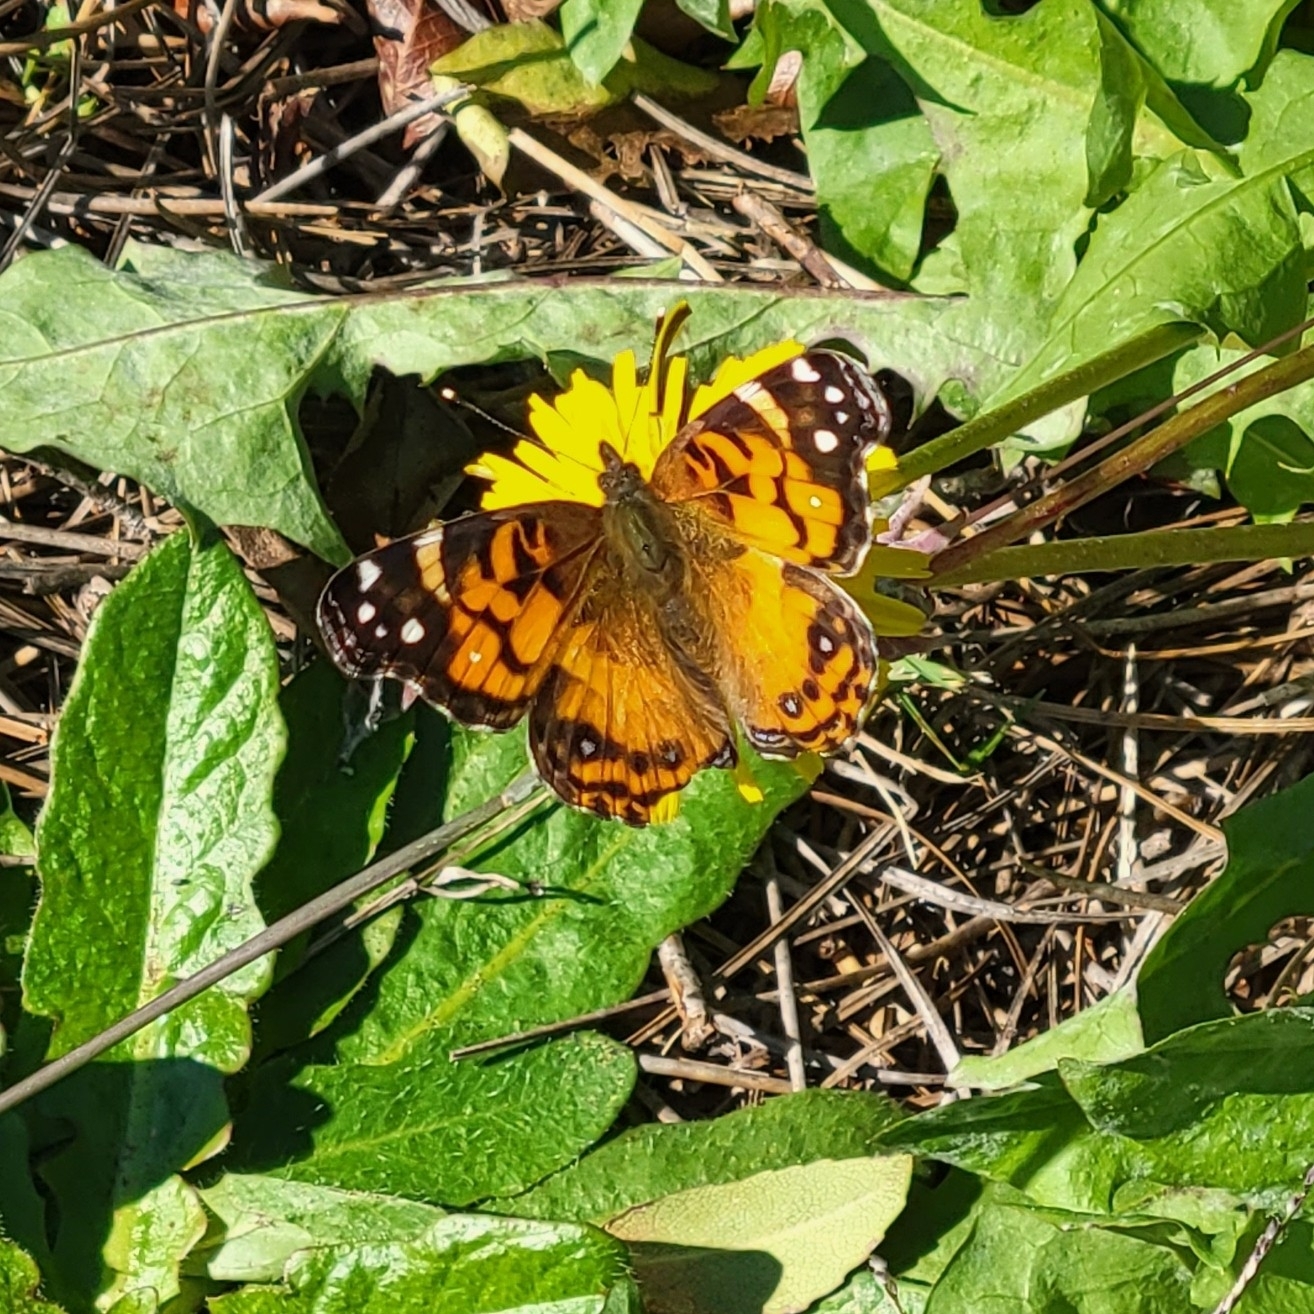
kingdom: Animalia
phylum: Arthropoda
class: Insecta
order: Lepidoptera
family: Nymphalidae
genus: Vanessa
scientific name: Vanessa virginiensis
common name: American lady
